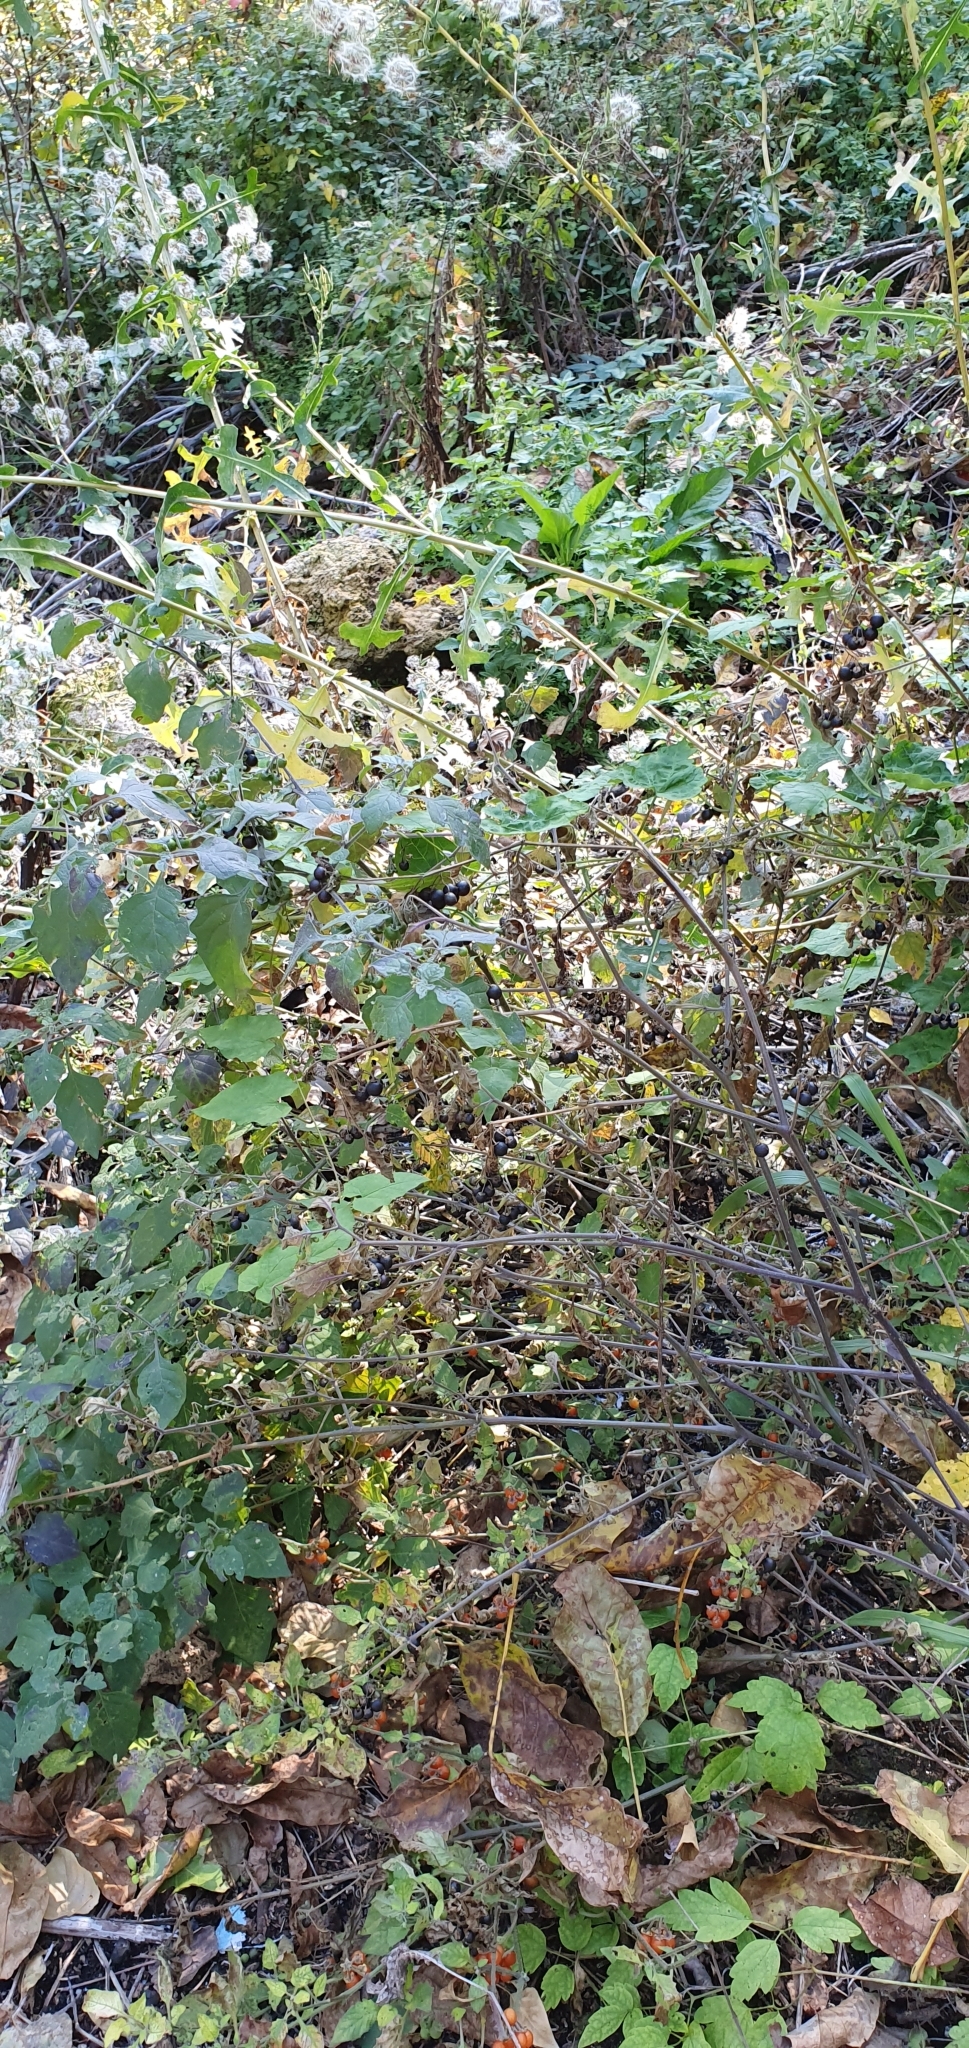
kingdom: Plantae
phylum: Tracheophyta
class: Magnoliopsida
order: Solanales
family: Solanaceae
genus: Solanum
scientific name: Solanum nigrum
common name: Black nightshade
